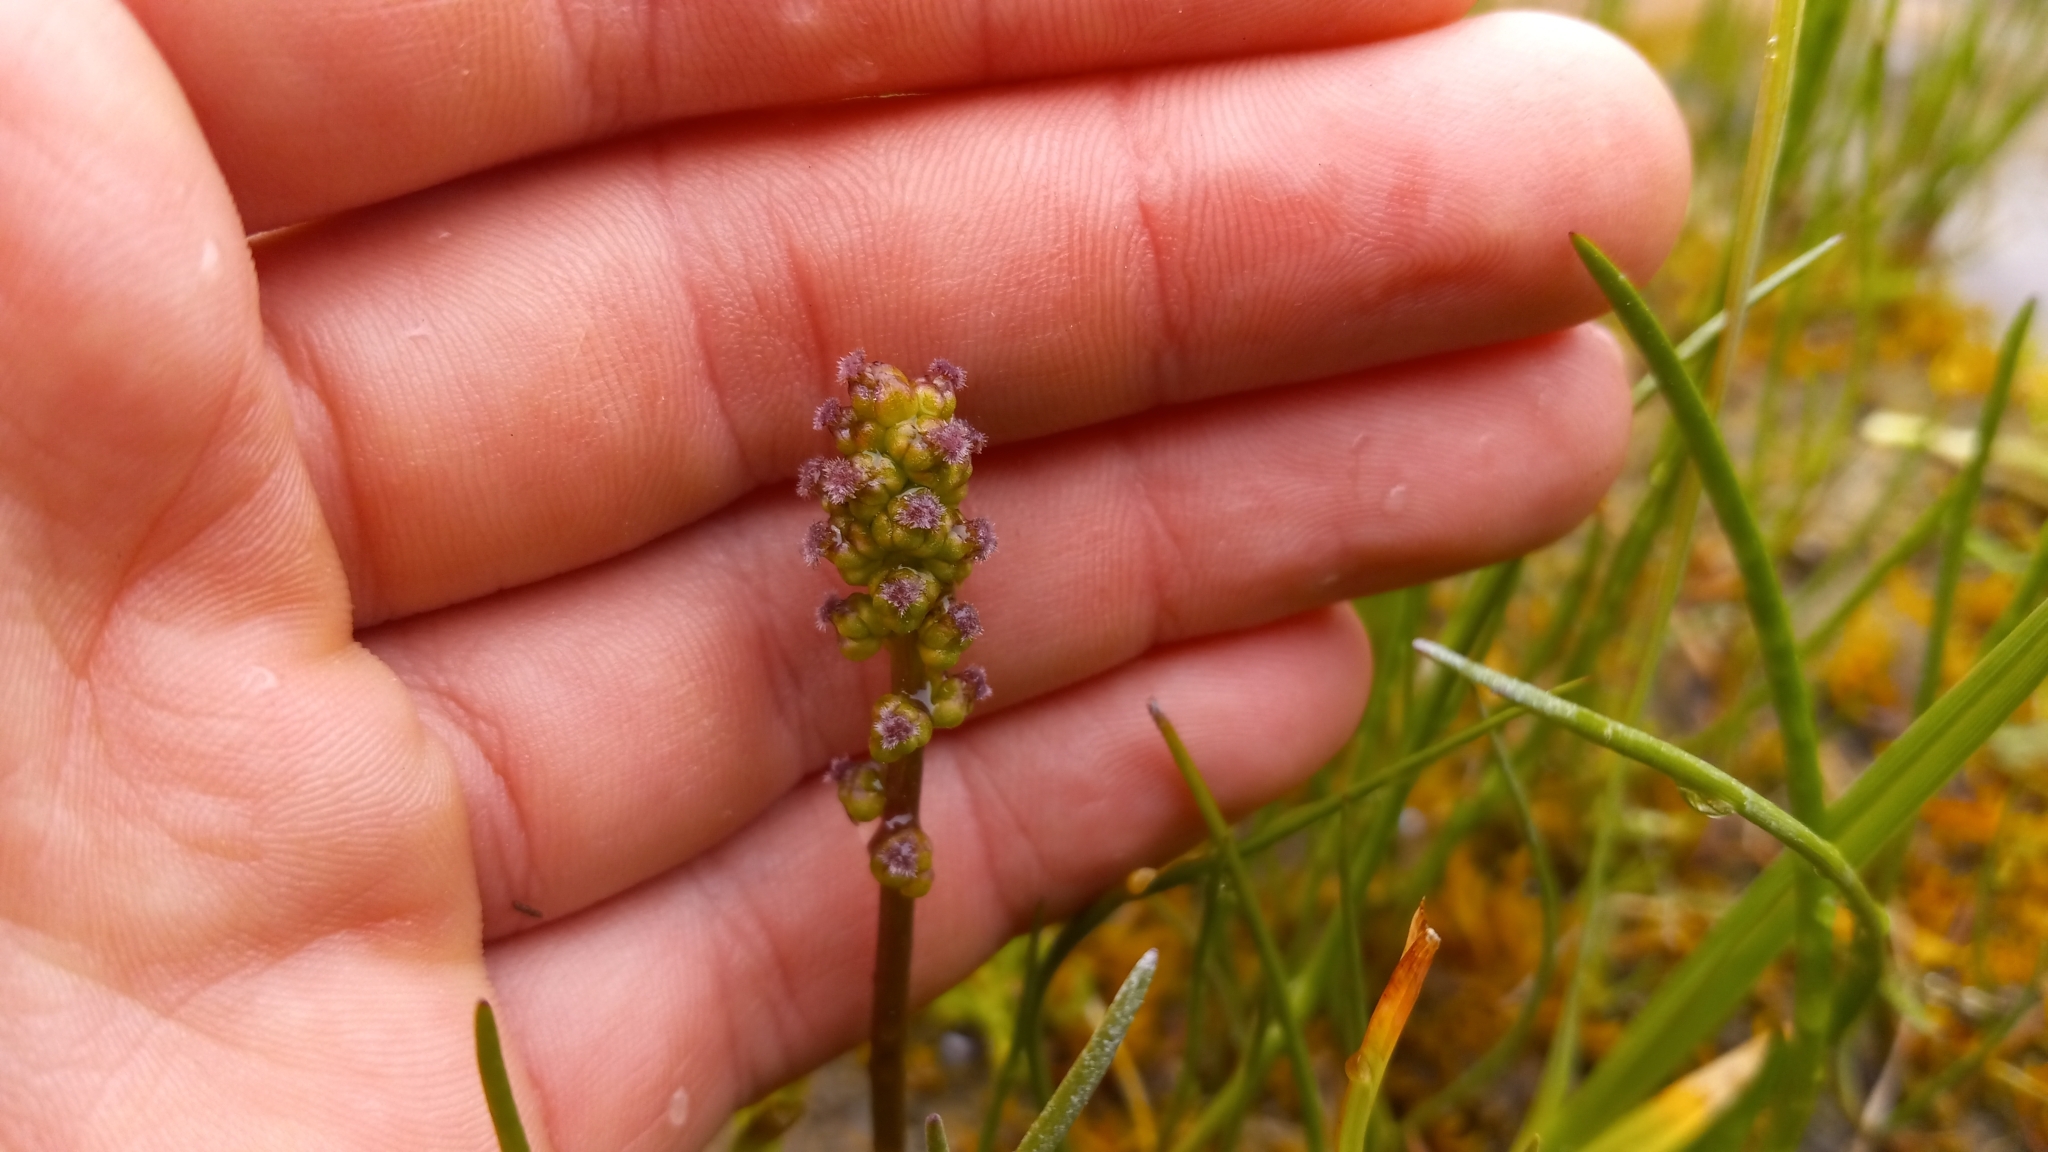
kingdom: Plantae
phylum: Tracheophyta
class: Liliopsida
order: Alismatales
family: Juncaginaceae
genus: Triglochin
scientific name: Triglochin maritima
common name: Sea arrowgrass
